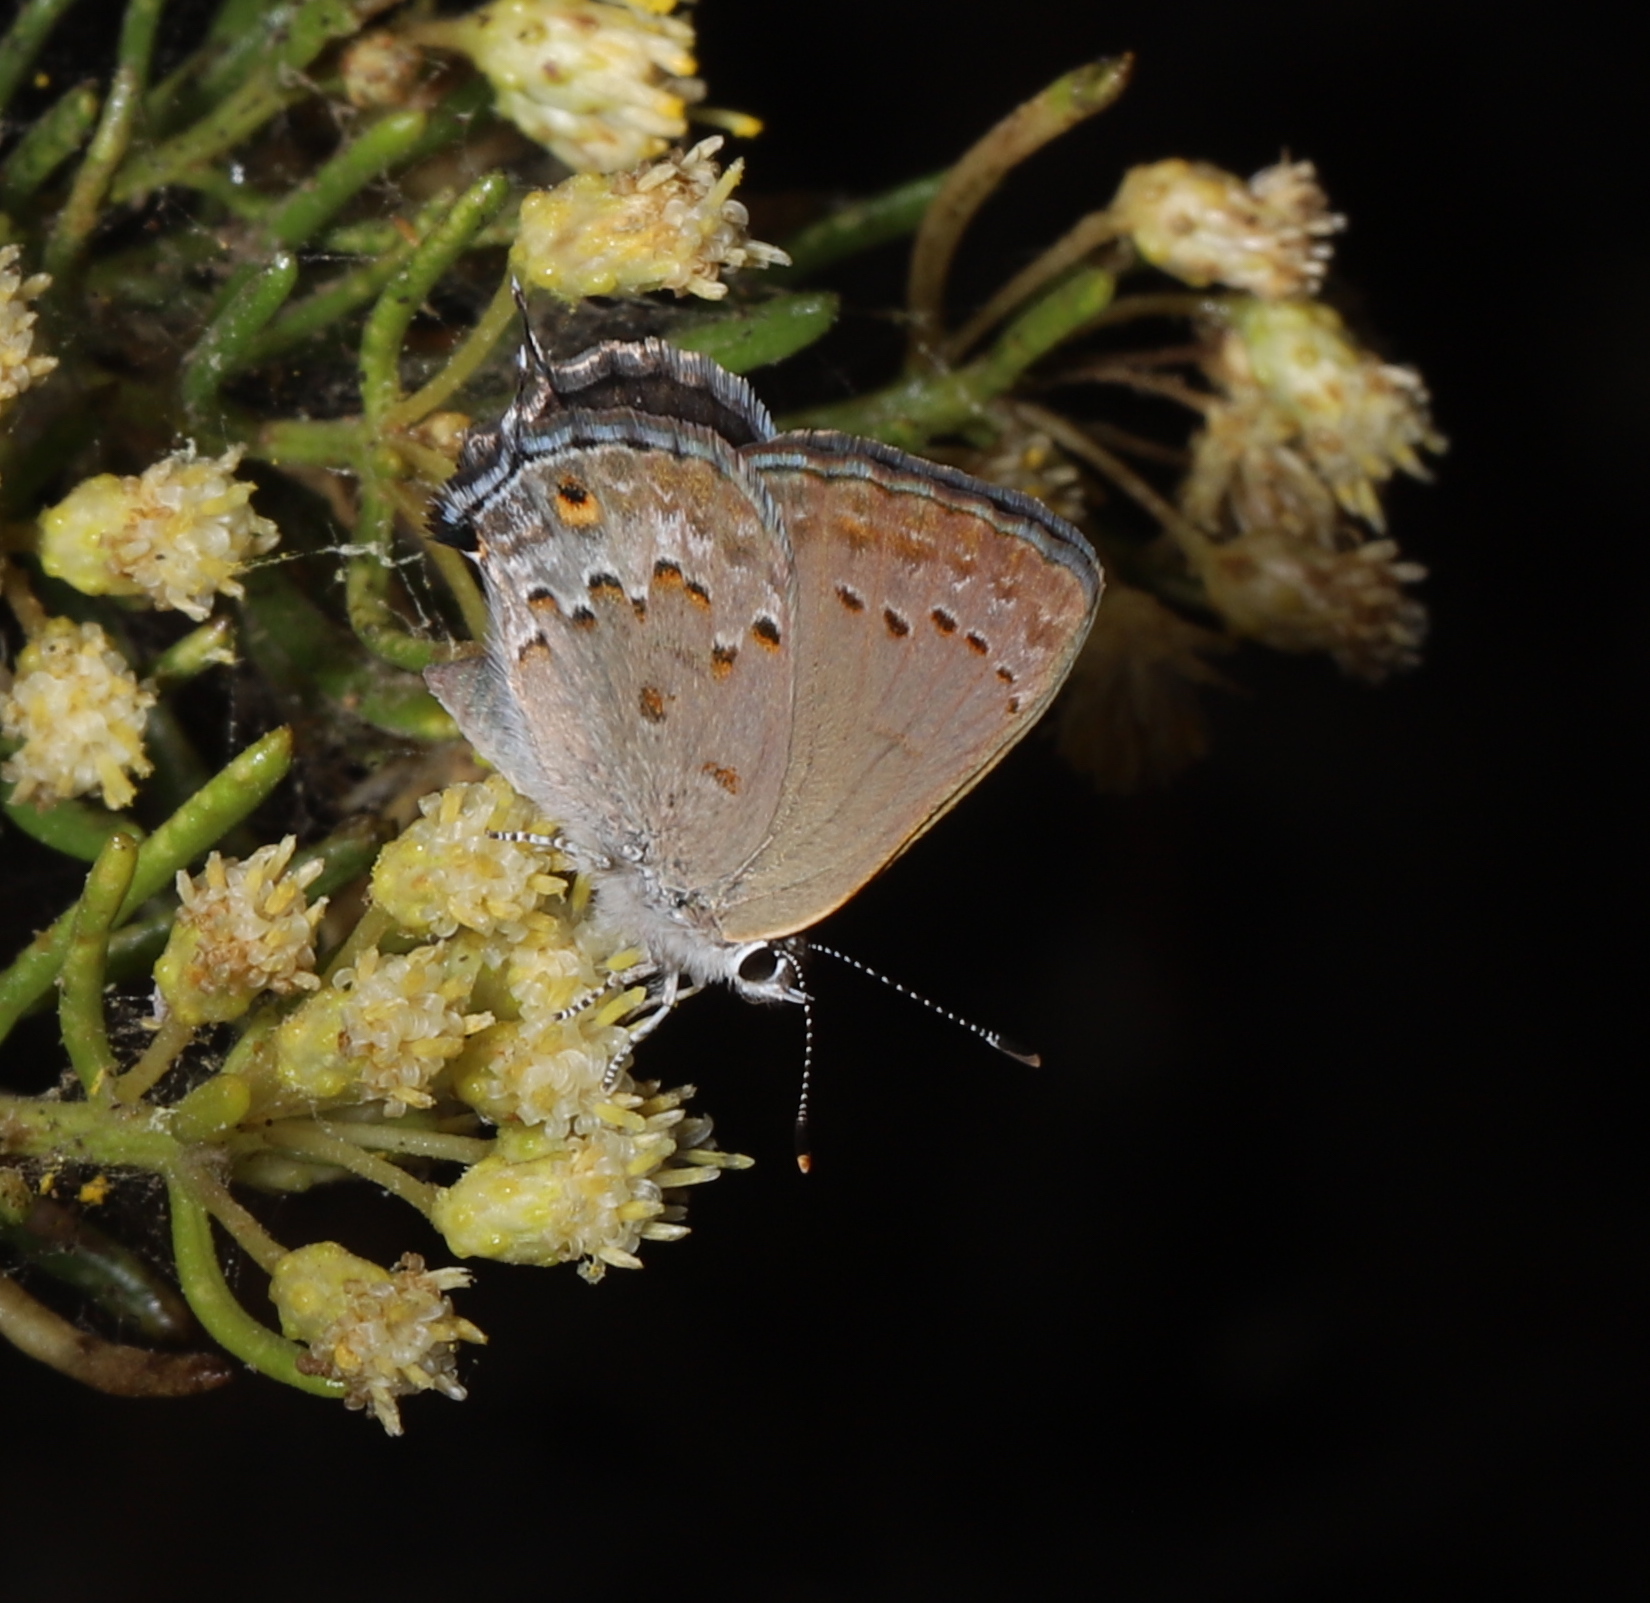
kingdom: Animalia
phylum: Arthropoda
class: Insecta
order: Lepidoptera
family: Lycaenidae
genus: Strymon
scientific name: Strymon eurytulus
